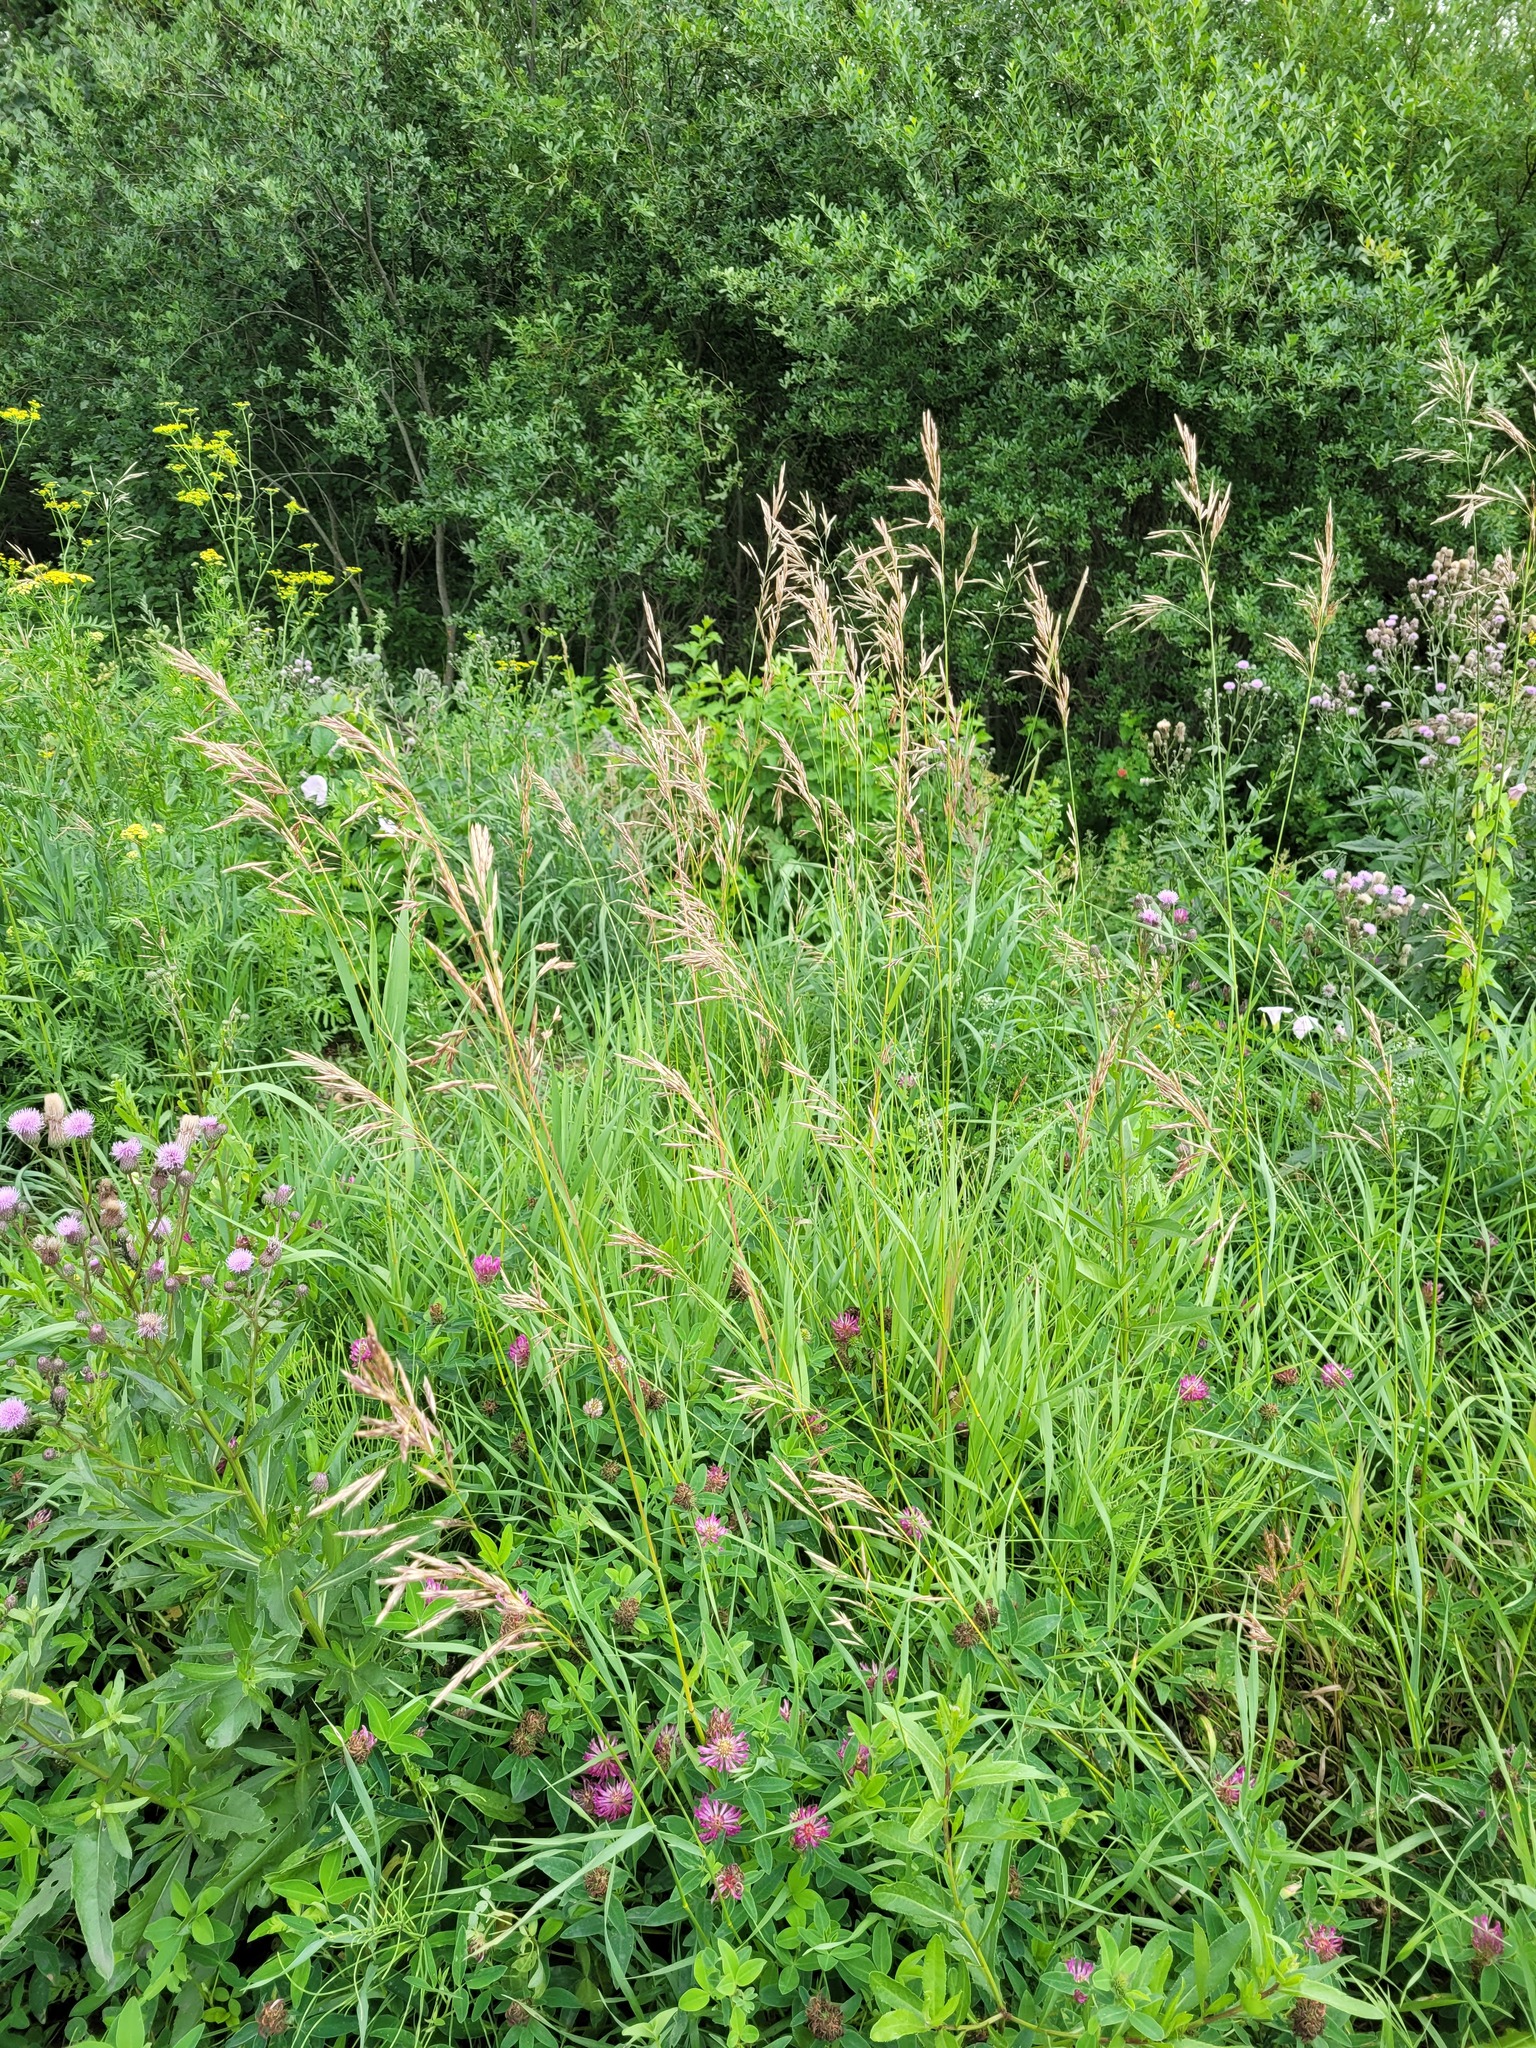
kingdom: Plantae
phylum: Tracheophyta
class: Liliopsida
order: Poales
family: Poaceae
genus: Bromus
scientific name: Bromus inermis
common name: Smooth brome
